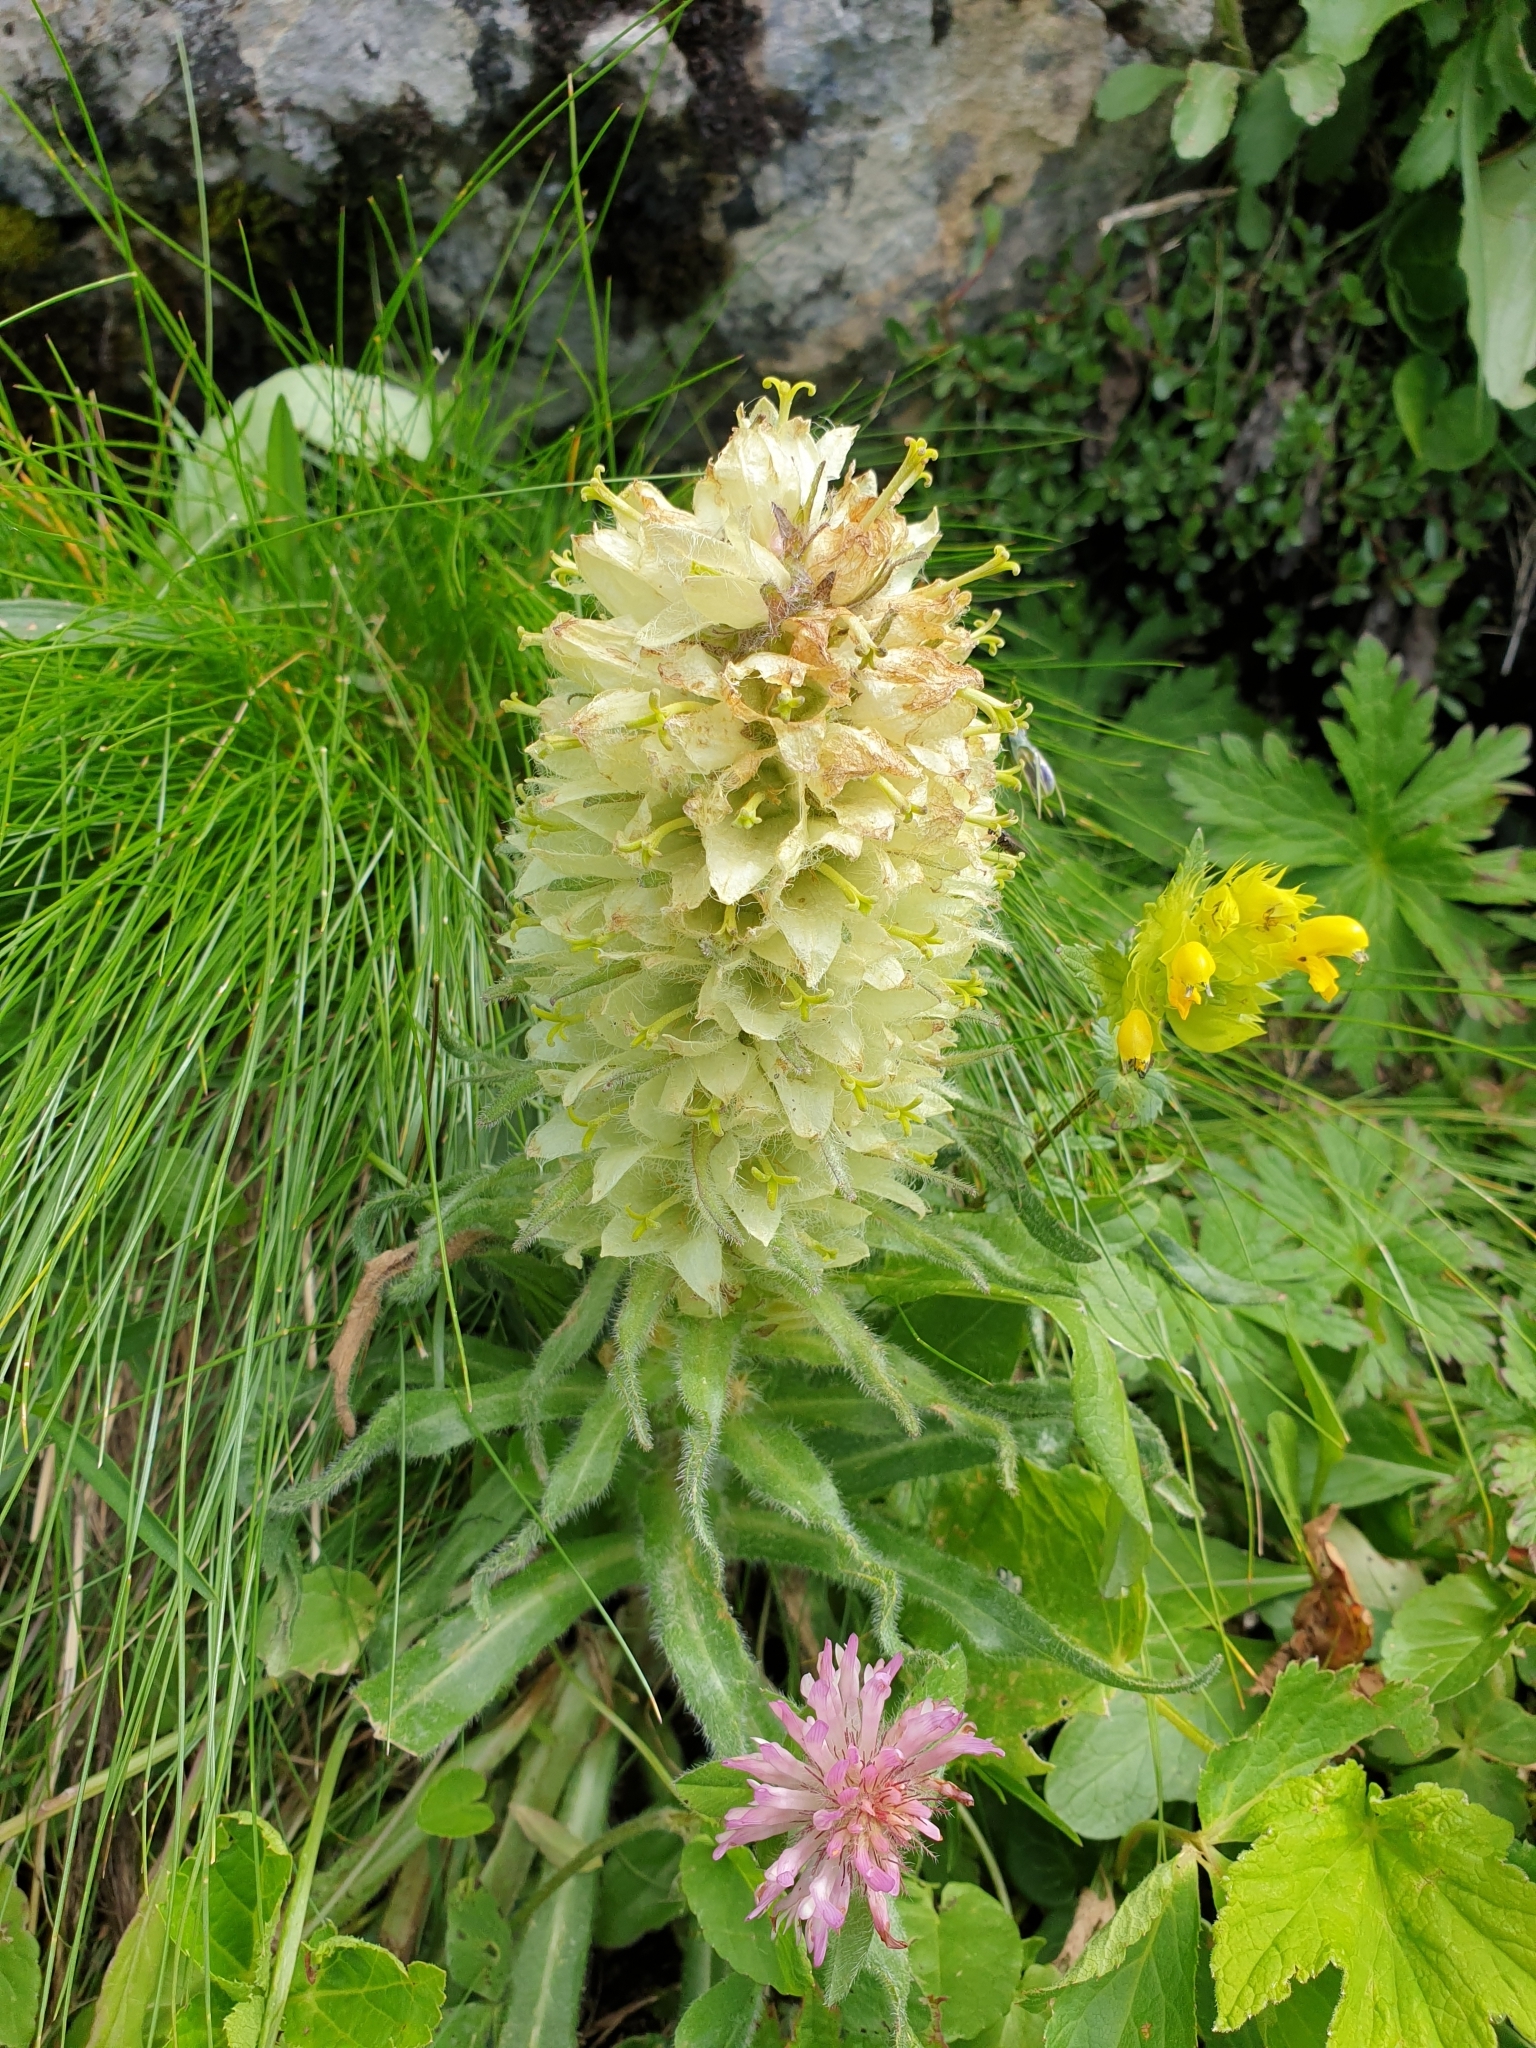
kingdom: Plantae
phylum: Tracheophyta
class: Magnoliopsida
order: Asterales
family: Campanulaceae
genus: Campanula
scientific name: Campanula thyrsoides
